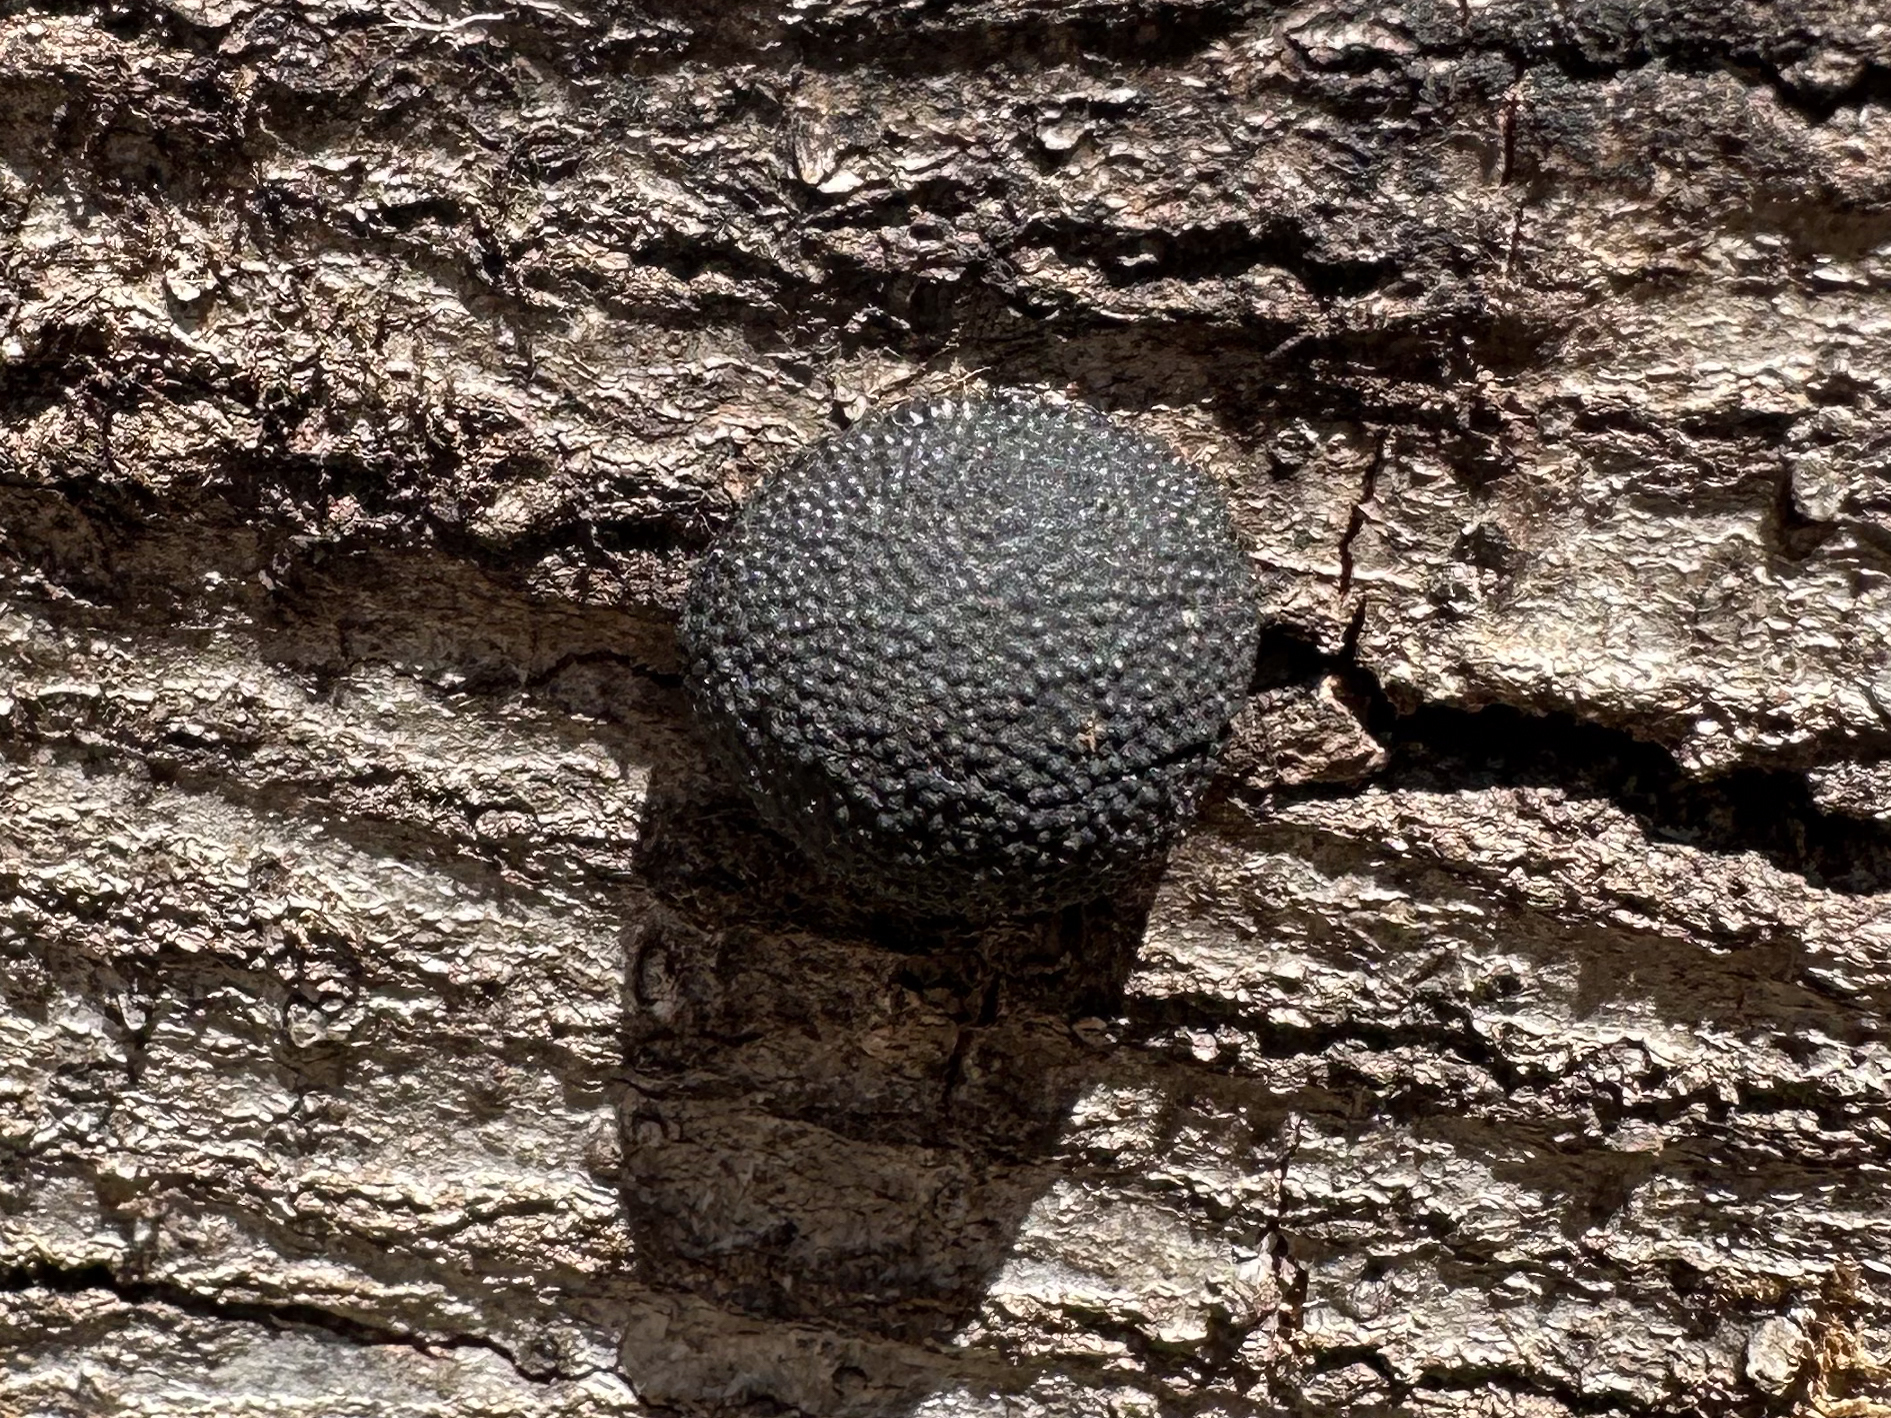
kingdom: Fungi
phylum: Ascomycota
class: Sordariomycetes
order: Xylariales
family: Hypoxylaceae
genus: Annulohypoxylon
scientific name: Annulohypoxylon thouarsianum
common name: Cramp balls
